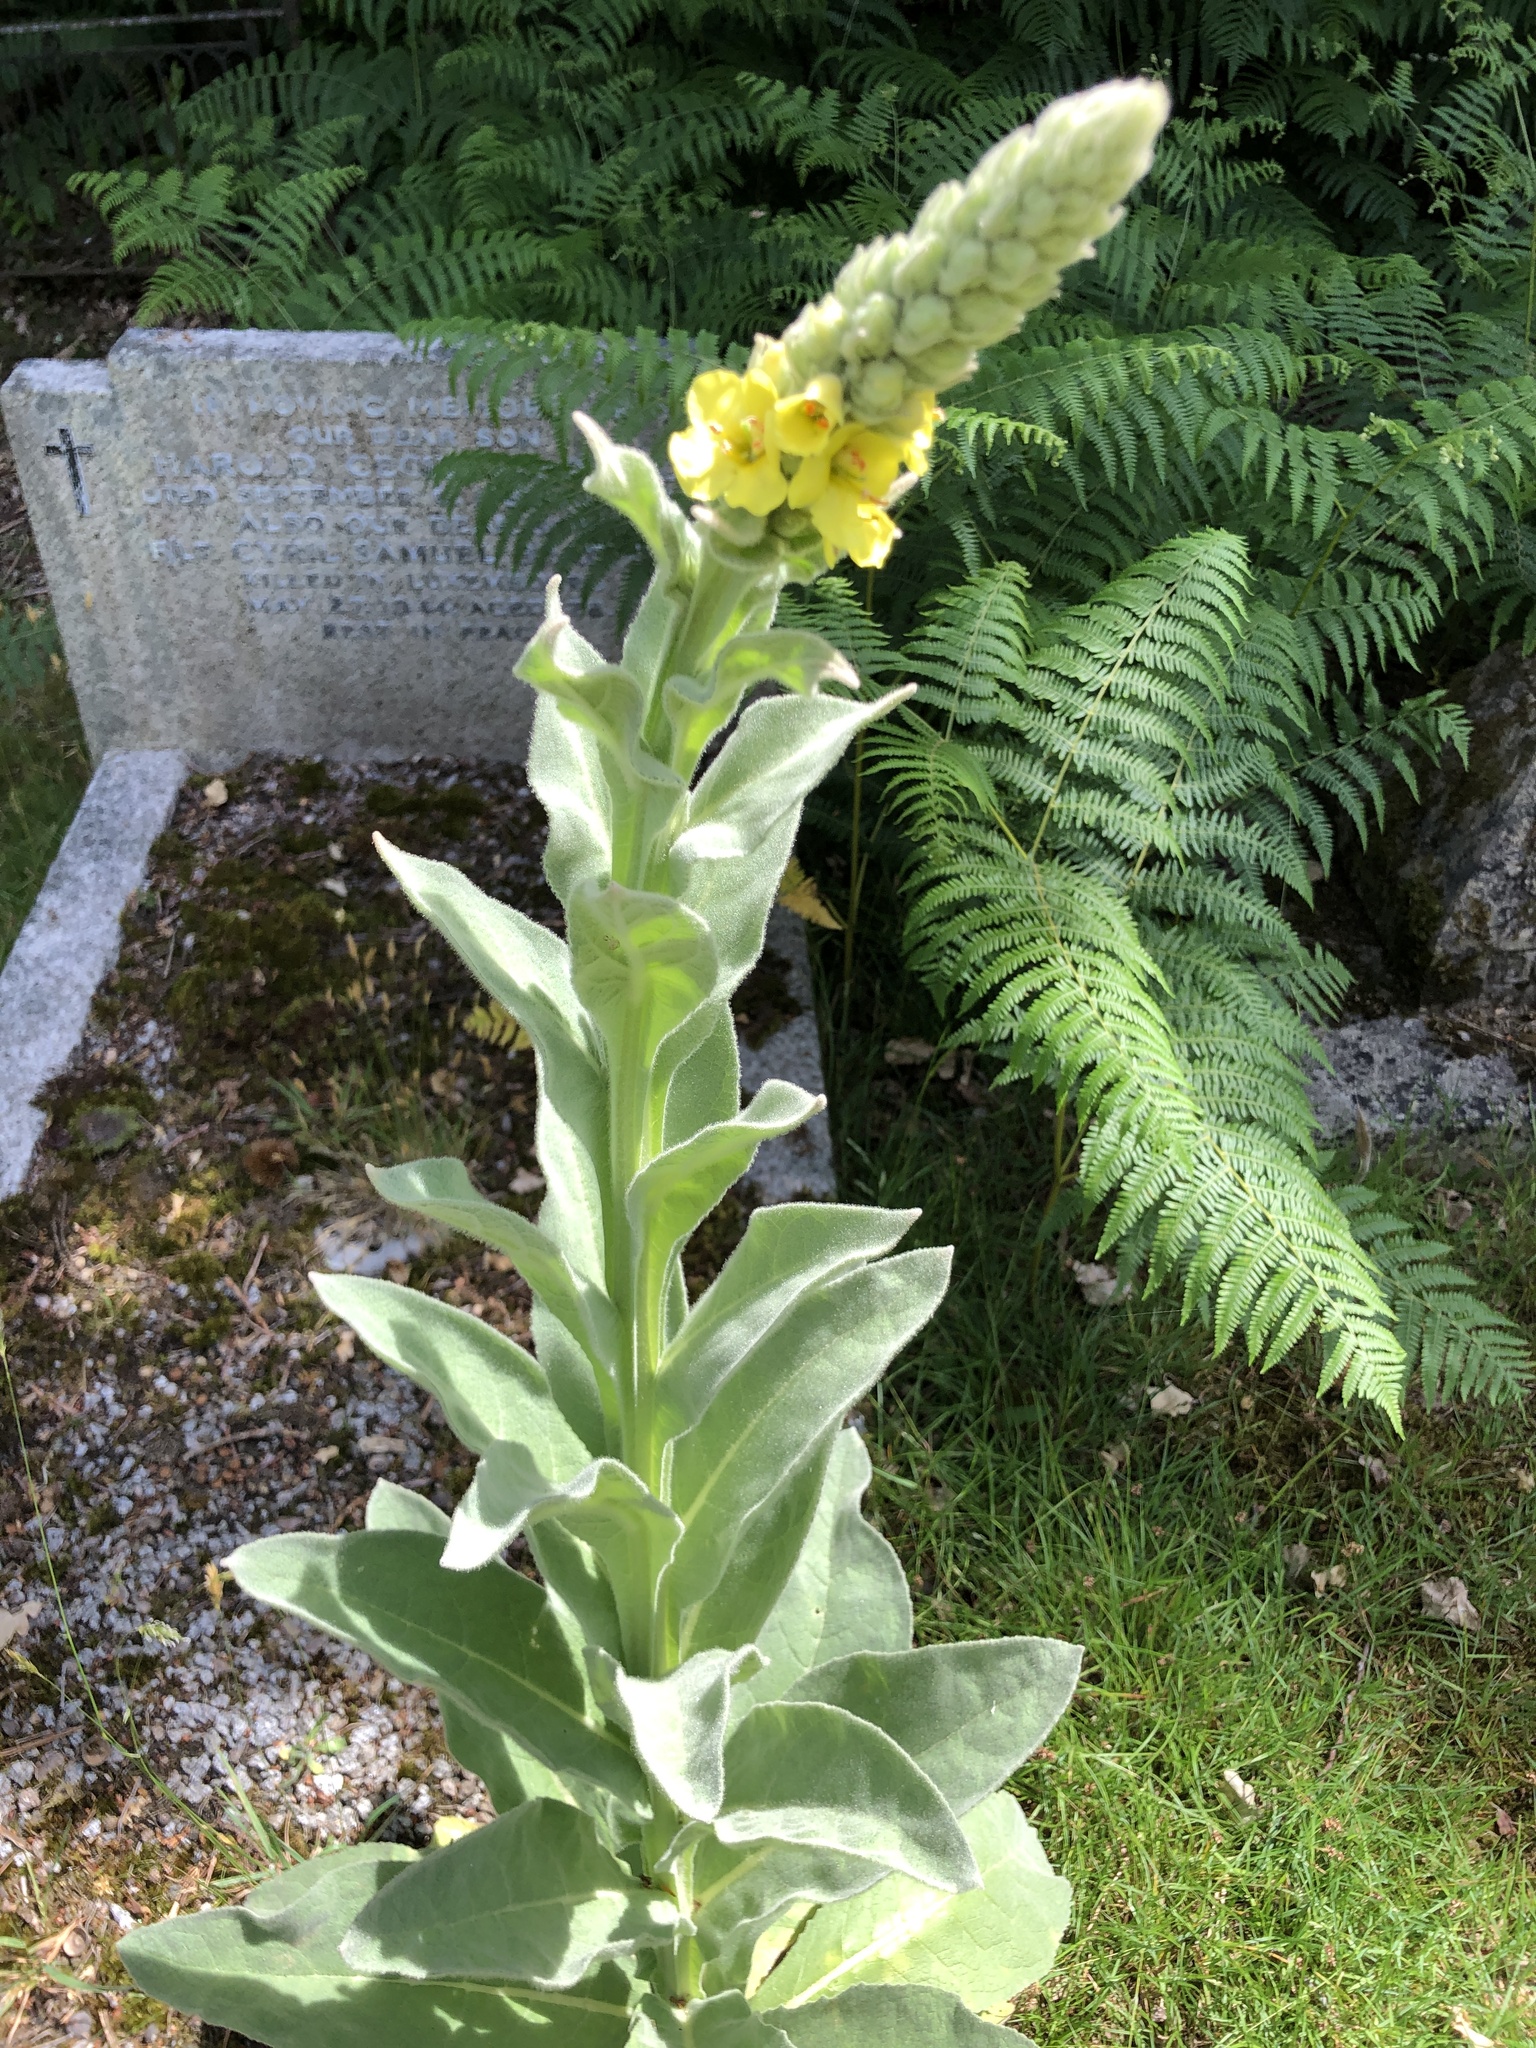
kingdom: Plantae
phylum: Tracheophyta
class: Magnoliopsida
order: Lamiales
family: Scrophulariaceae
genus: Verbascum
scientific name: Verbascum thapsus
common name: Common mullein
